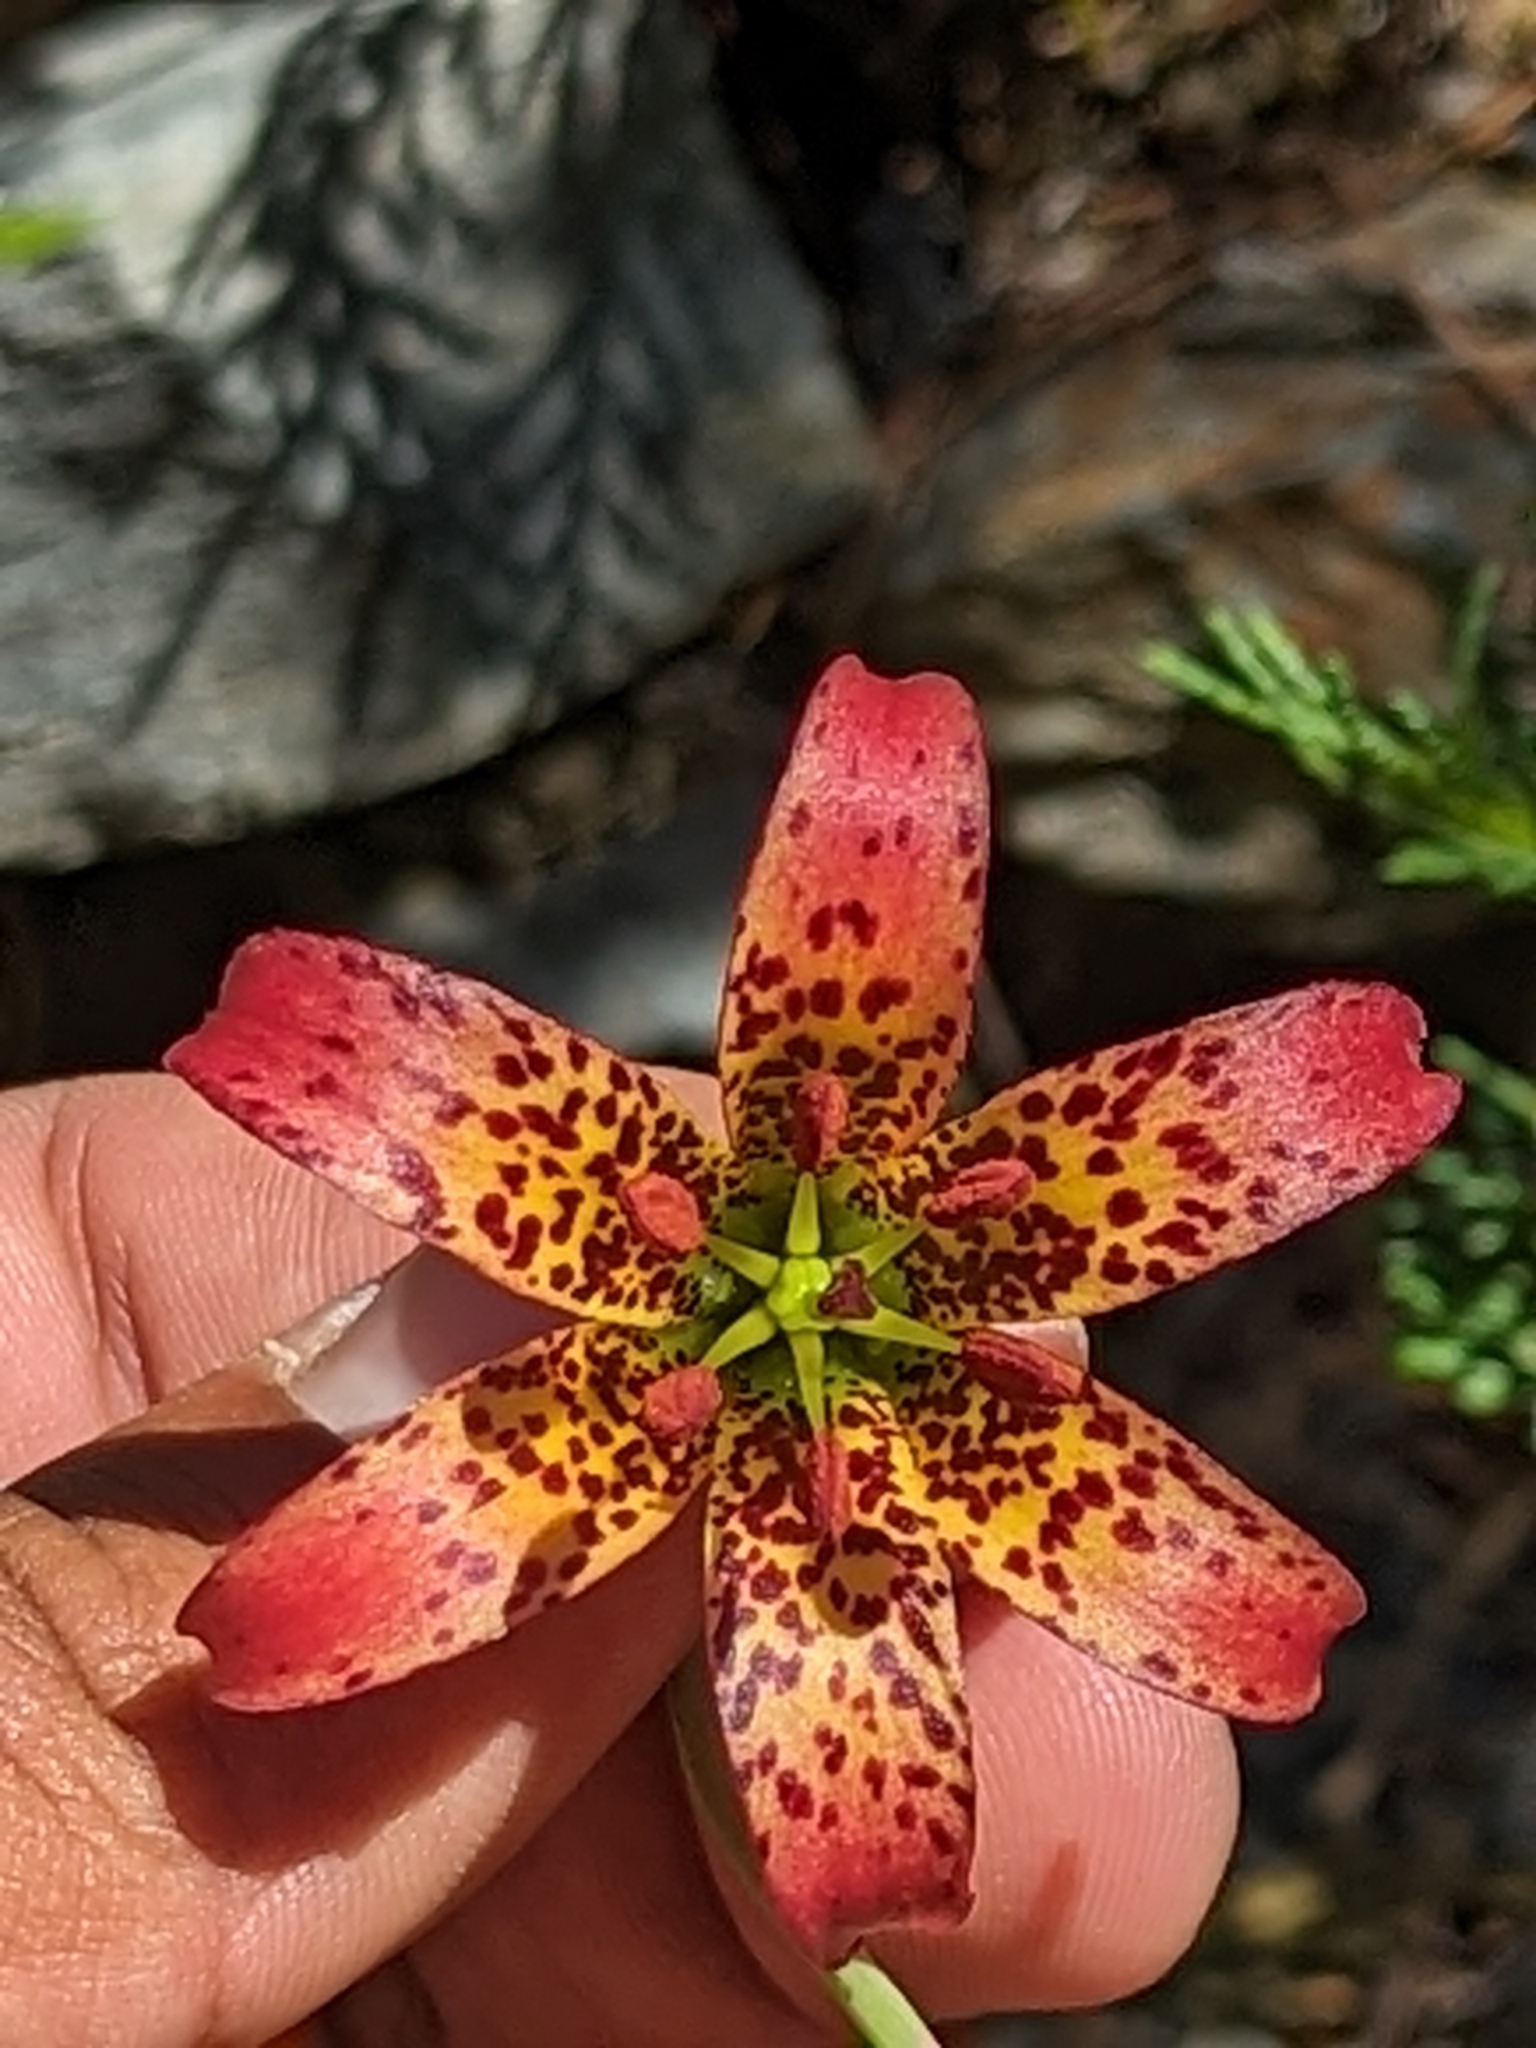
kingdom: Plantae
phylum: Tracheophyta
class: Liliopsida
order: Liliales
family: Liliaceae
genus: Lilium
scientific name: Lilium bolanderi
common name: Bolander's lily
